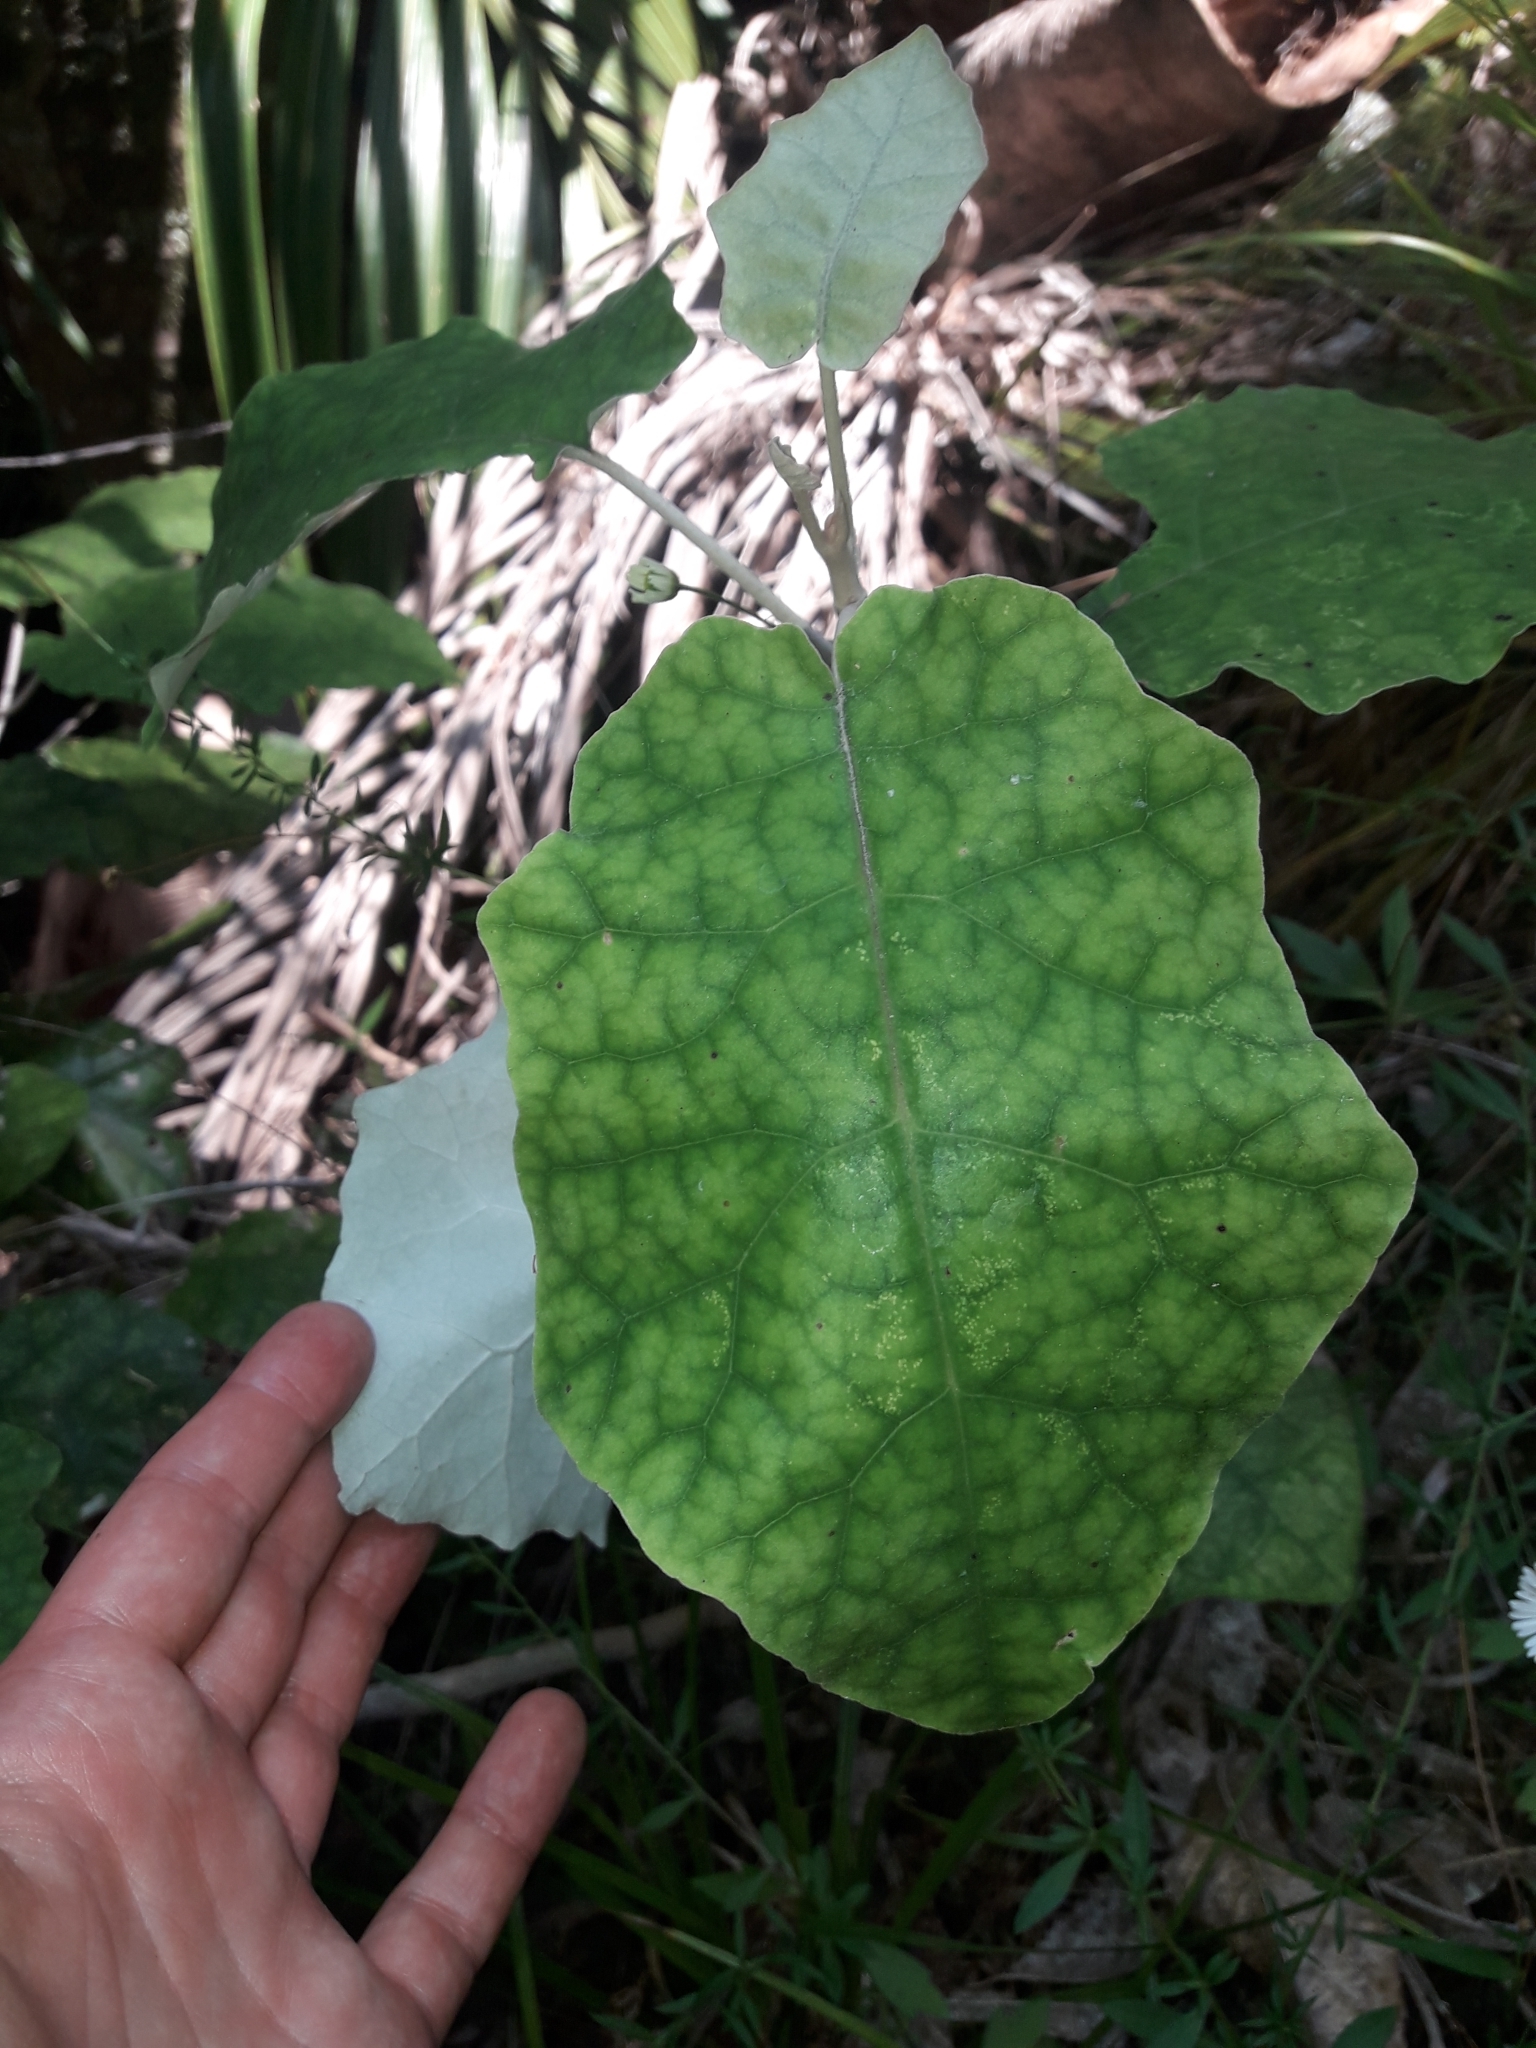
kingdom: Plantae
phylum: Tracheophyta
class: Magnoliopsida
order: Asterales
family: Asteraceae
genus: Brachyglottis
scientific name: Brachyglottis repanda
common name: Hedge ragwort
